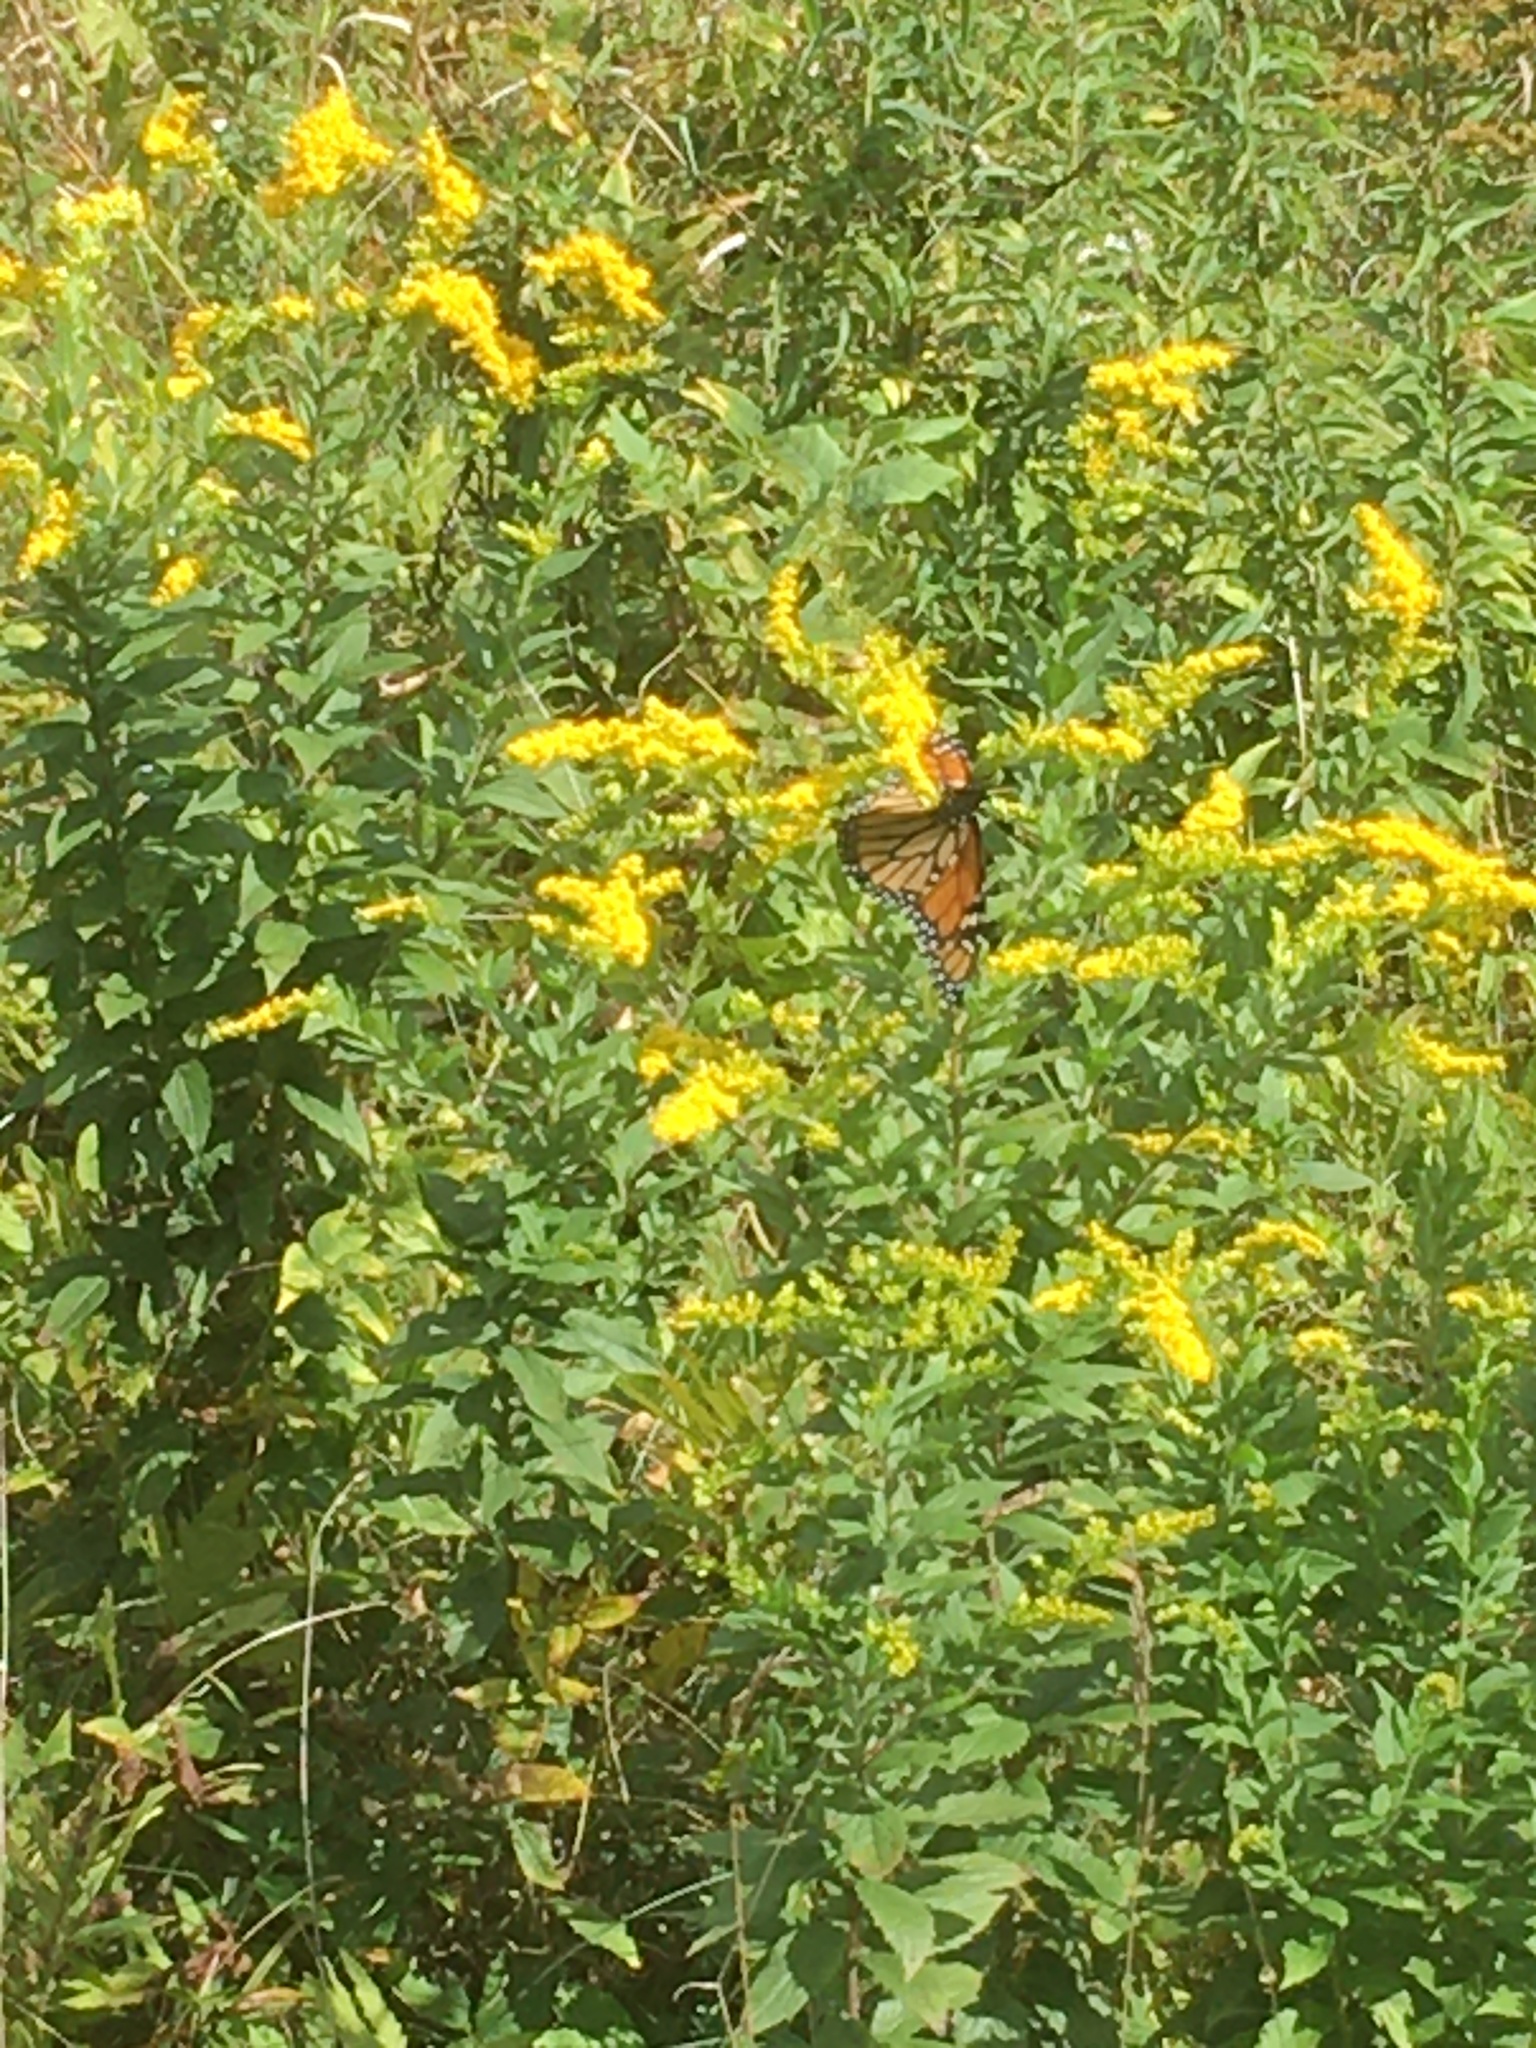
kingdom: Animalia
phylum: Arthropoda
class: Insecta
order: Lepidoptera
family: Nymphalidae
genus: Danaus
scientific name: Danaus plexippus
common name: Monarch
